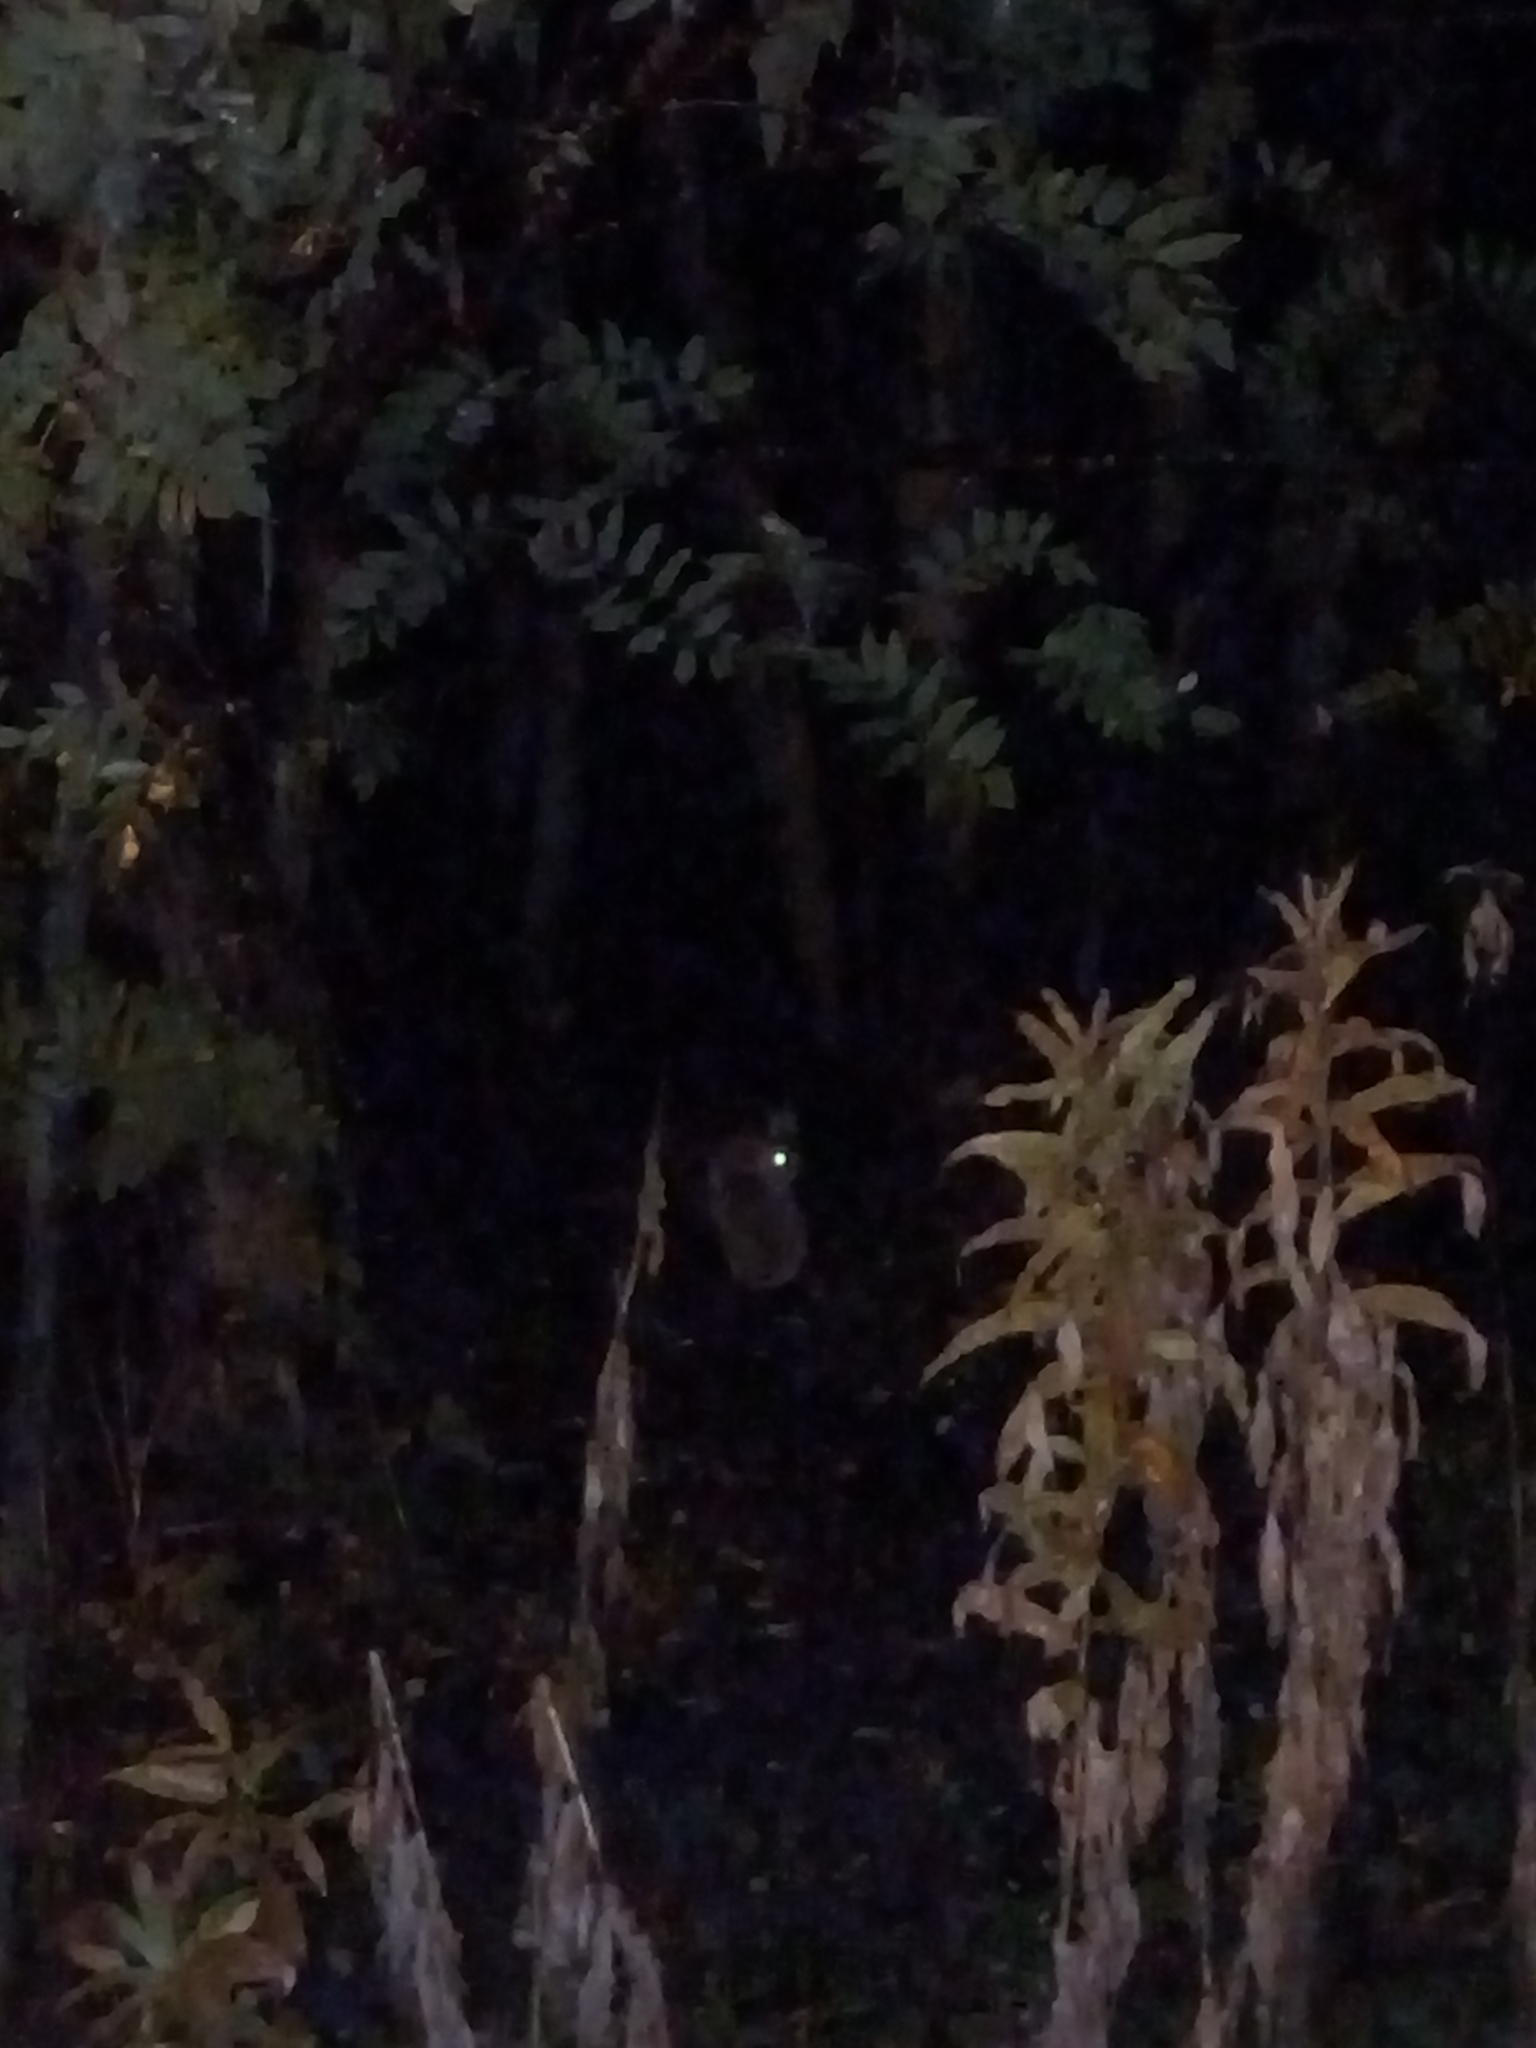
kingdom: Animalia
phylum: Chordata
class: Mammalia
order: Lagomorpha
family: Leporidae
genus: Oryctolagus
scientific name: Oryctolagus cuniculus
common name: European rabbit
